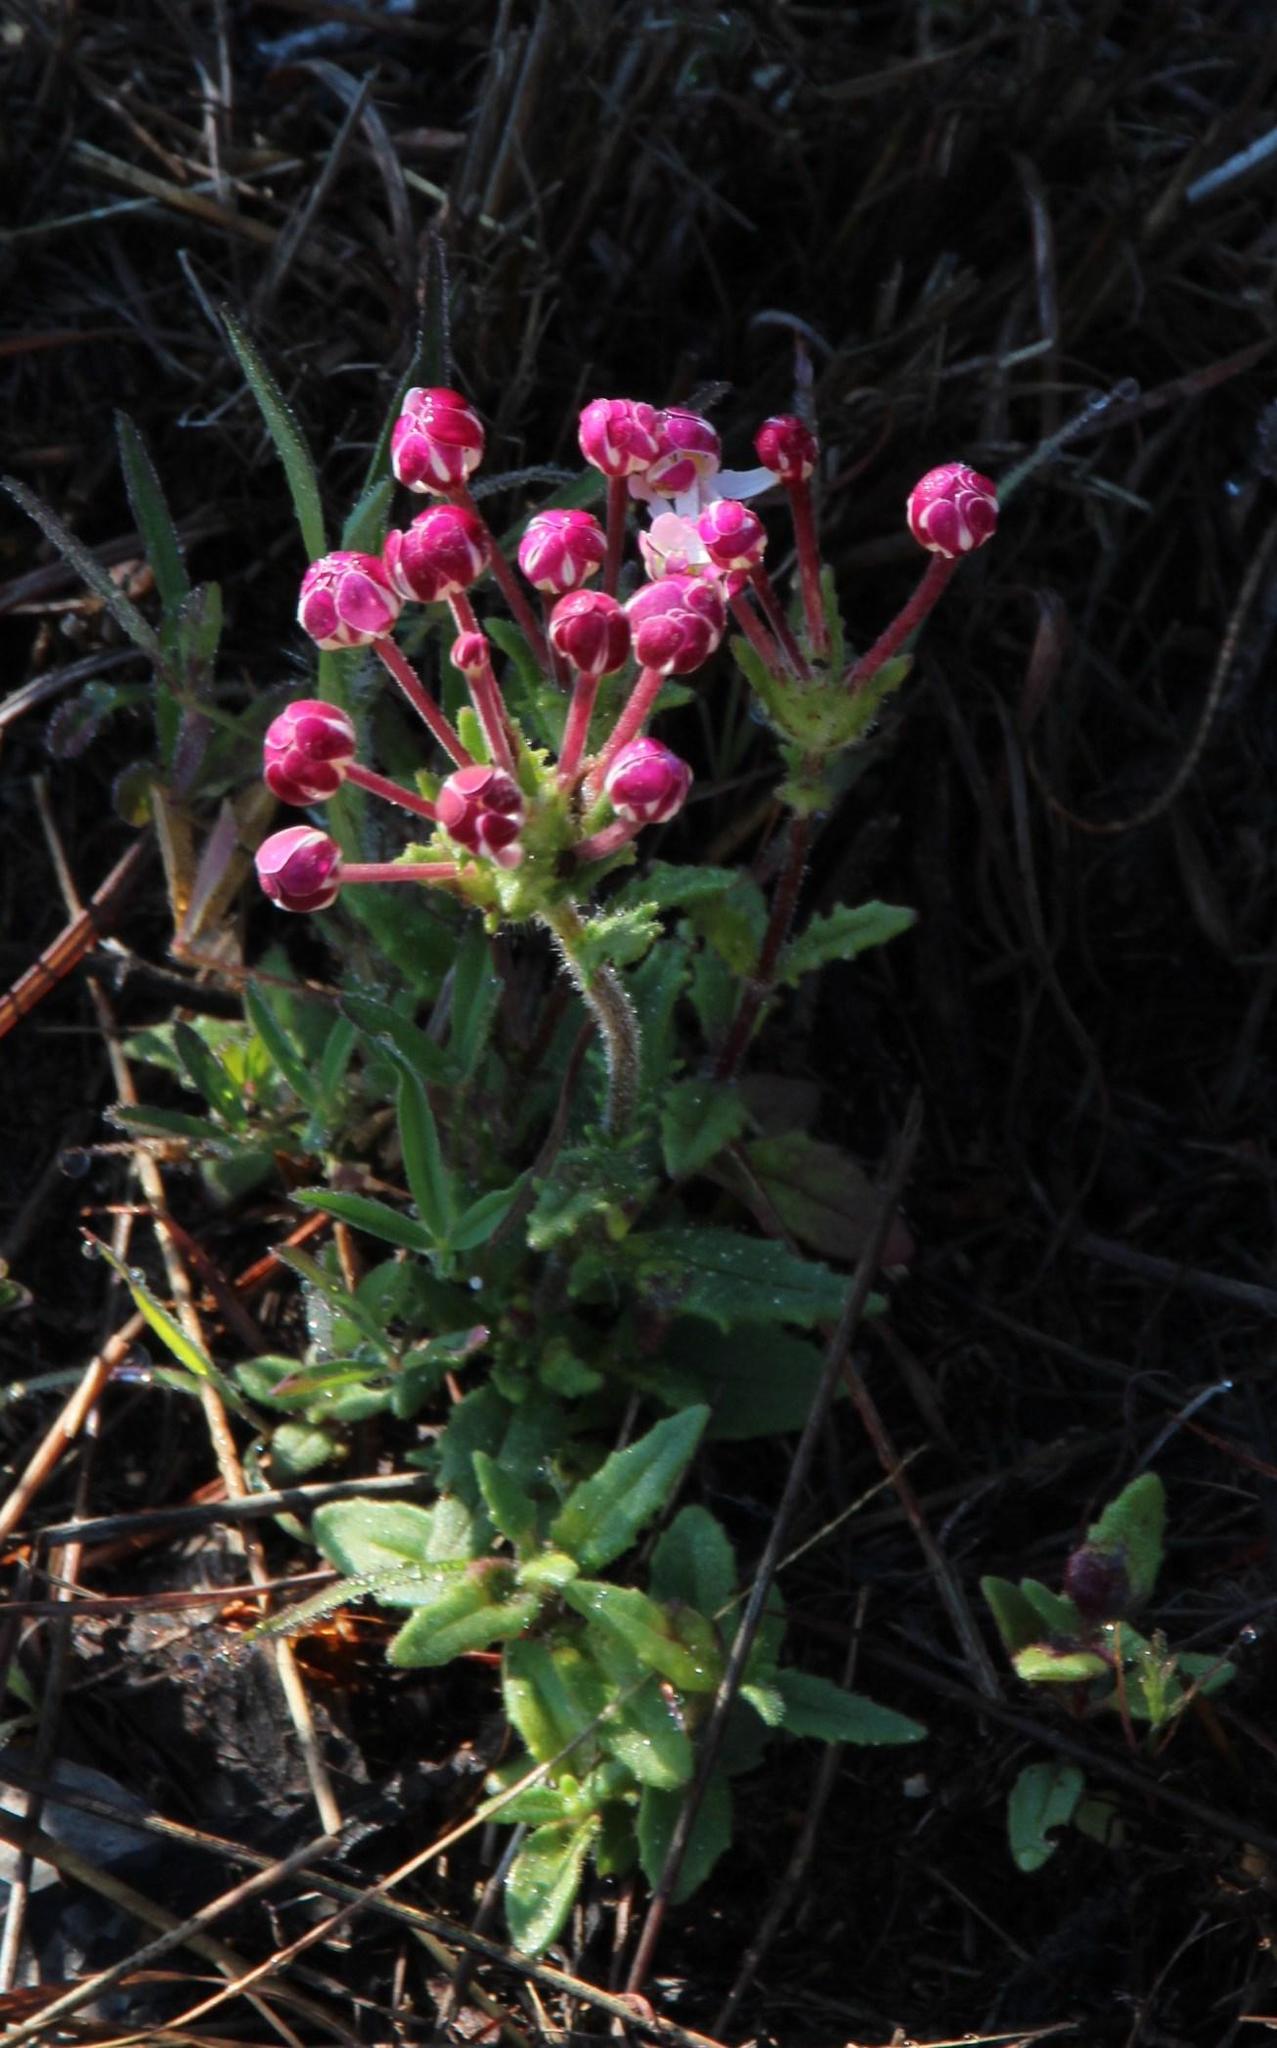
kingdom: Plantae
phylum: Tracheophyta
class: Magnoliopsida
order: Lamiales
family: Scrophulariaceae
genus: Zaluzianskya
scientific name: Zaluzianskya capensis
